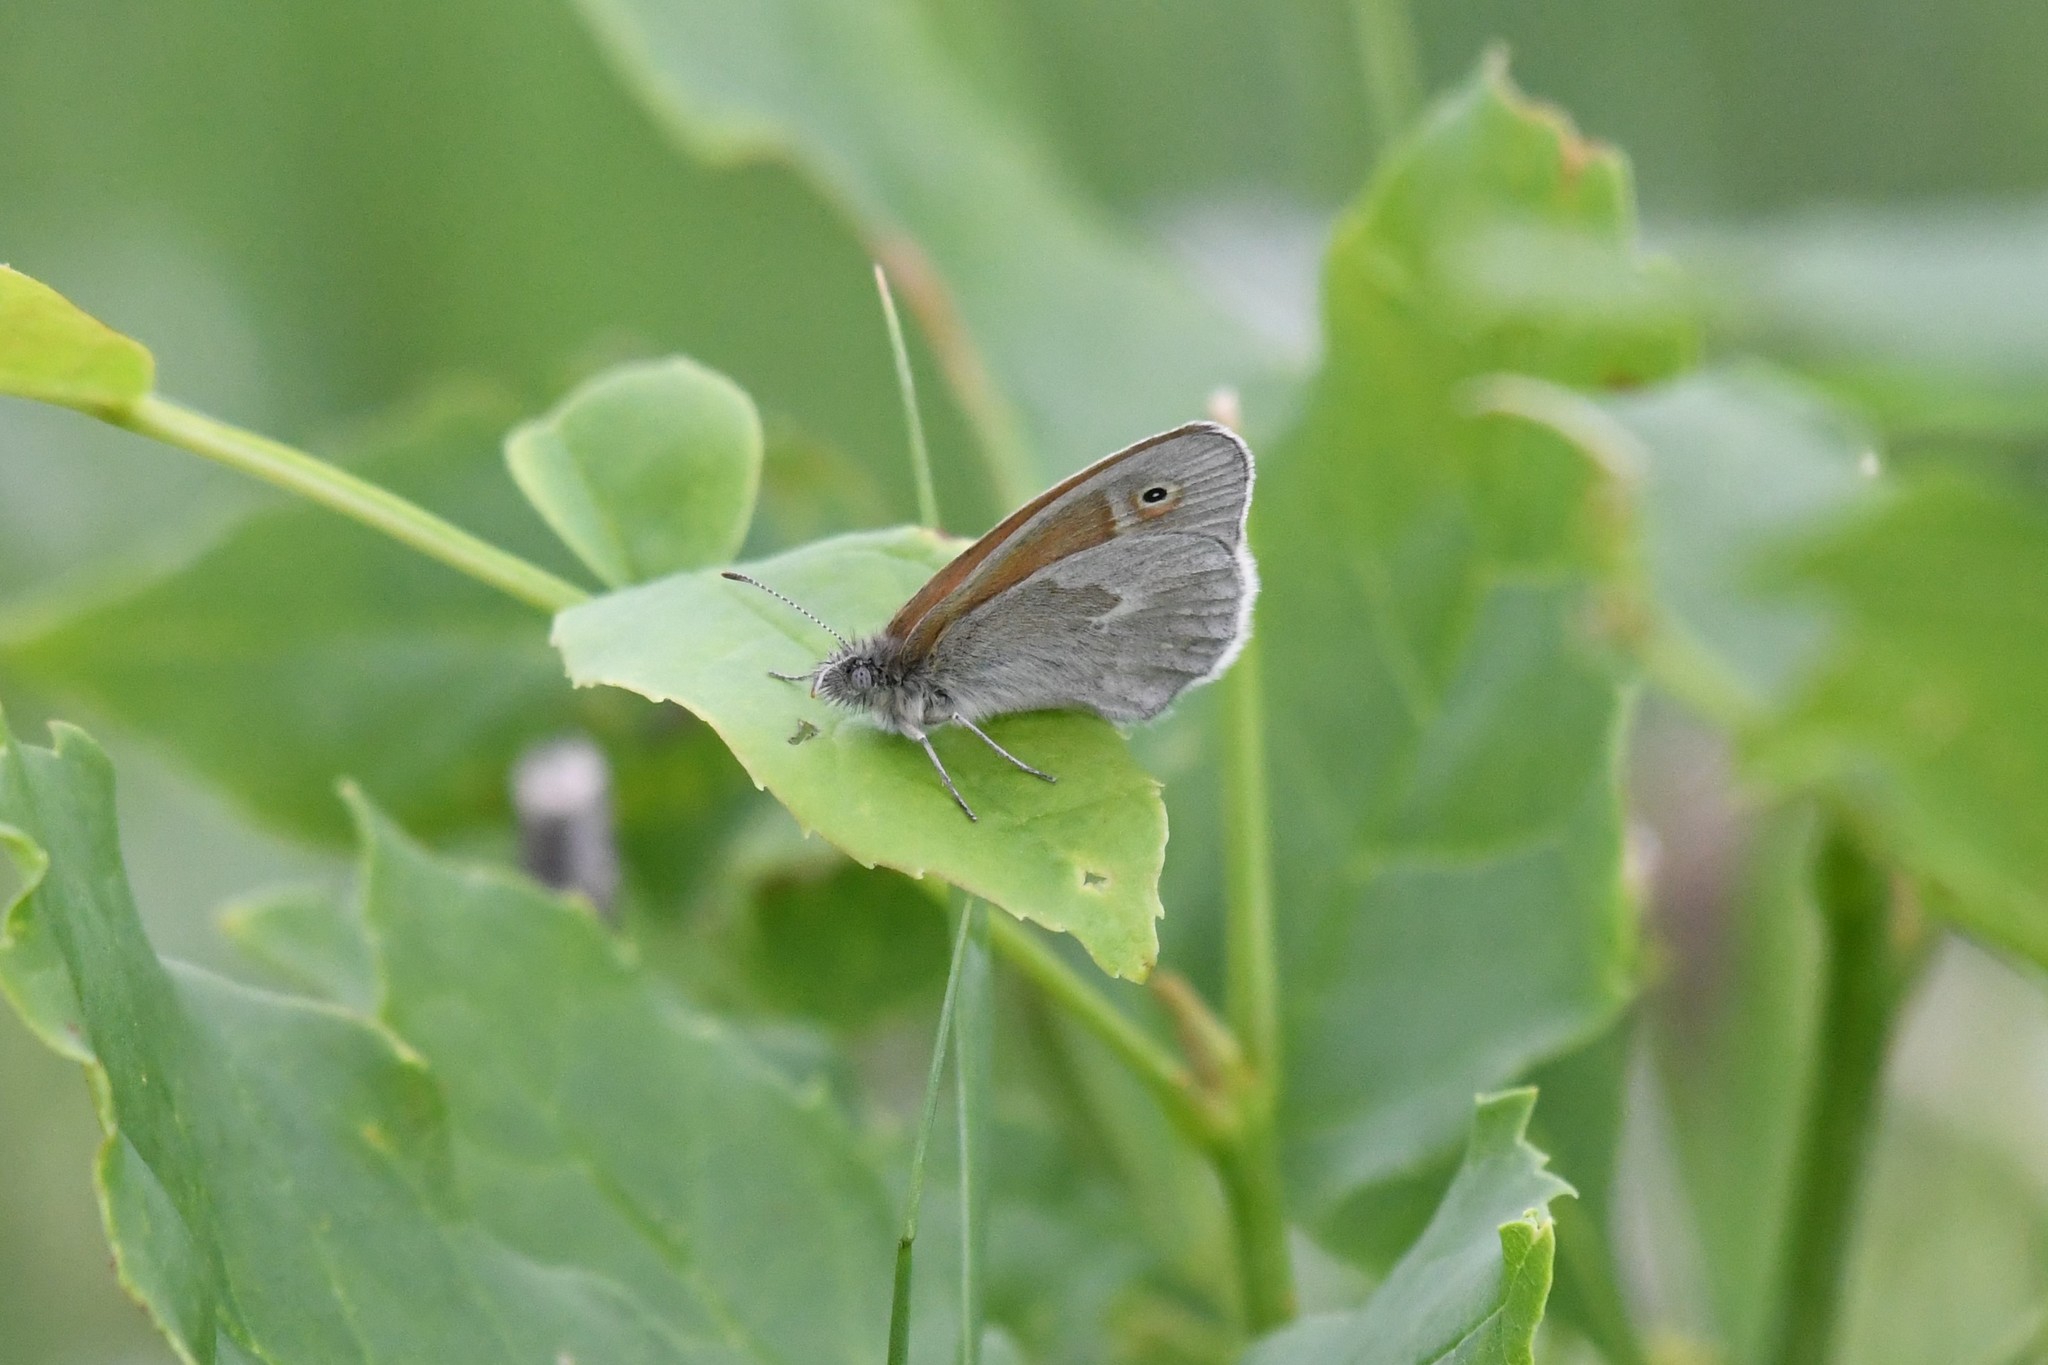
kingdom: Animalia
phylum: Arthropoda
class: Insecta
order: Lepidoptera
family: Nymphalidae
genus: Coenonympha
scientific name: Coenonympha california
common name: Common ringlet
